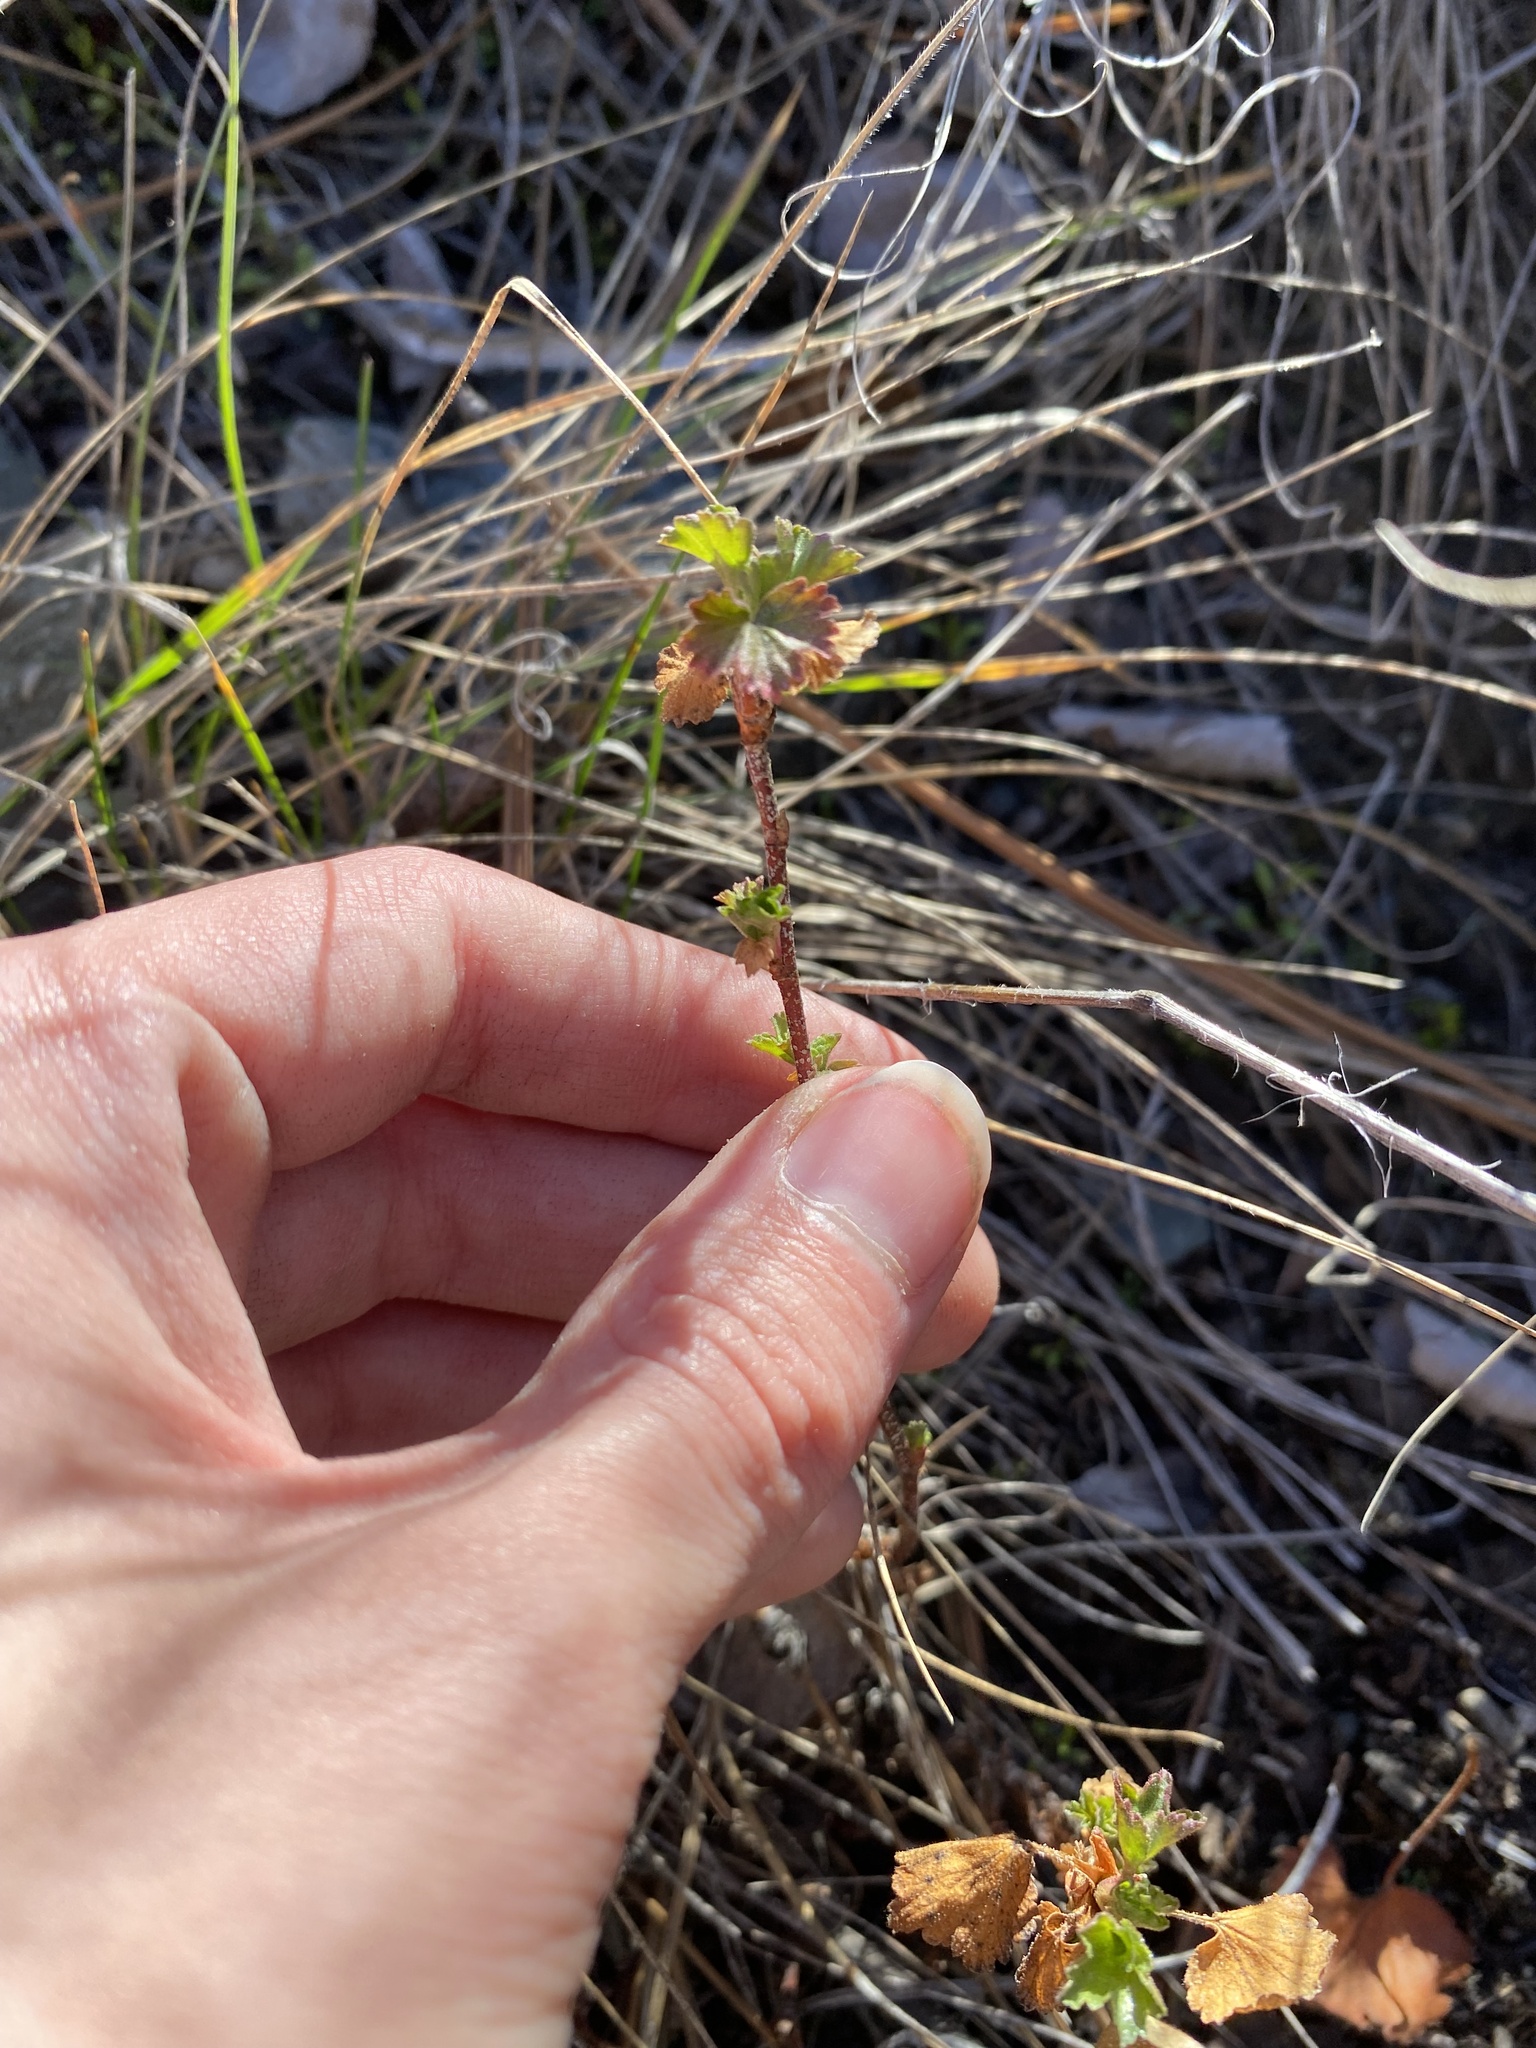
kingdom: Plantae
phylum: Tracheophyta
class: Magnoliopsida
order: Saxifragales
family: Grossulariaceae
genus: Ribes
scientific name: Ribes cereum
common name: Wax currant
